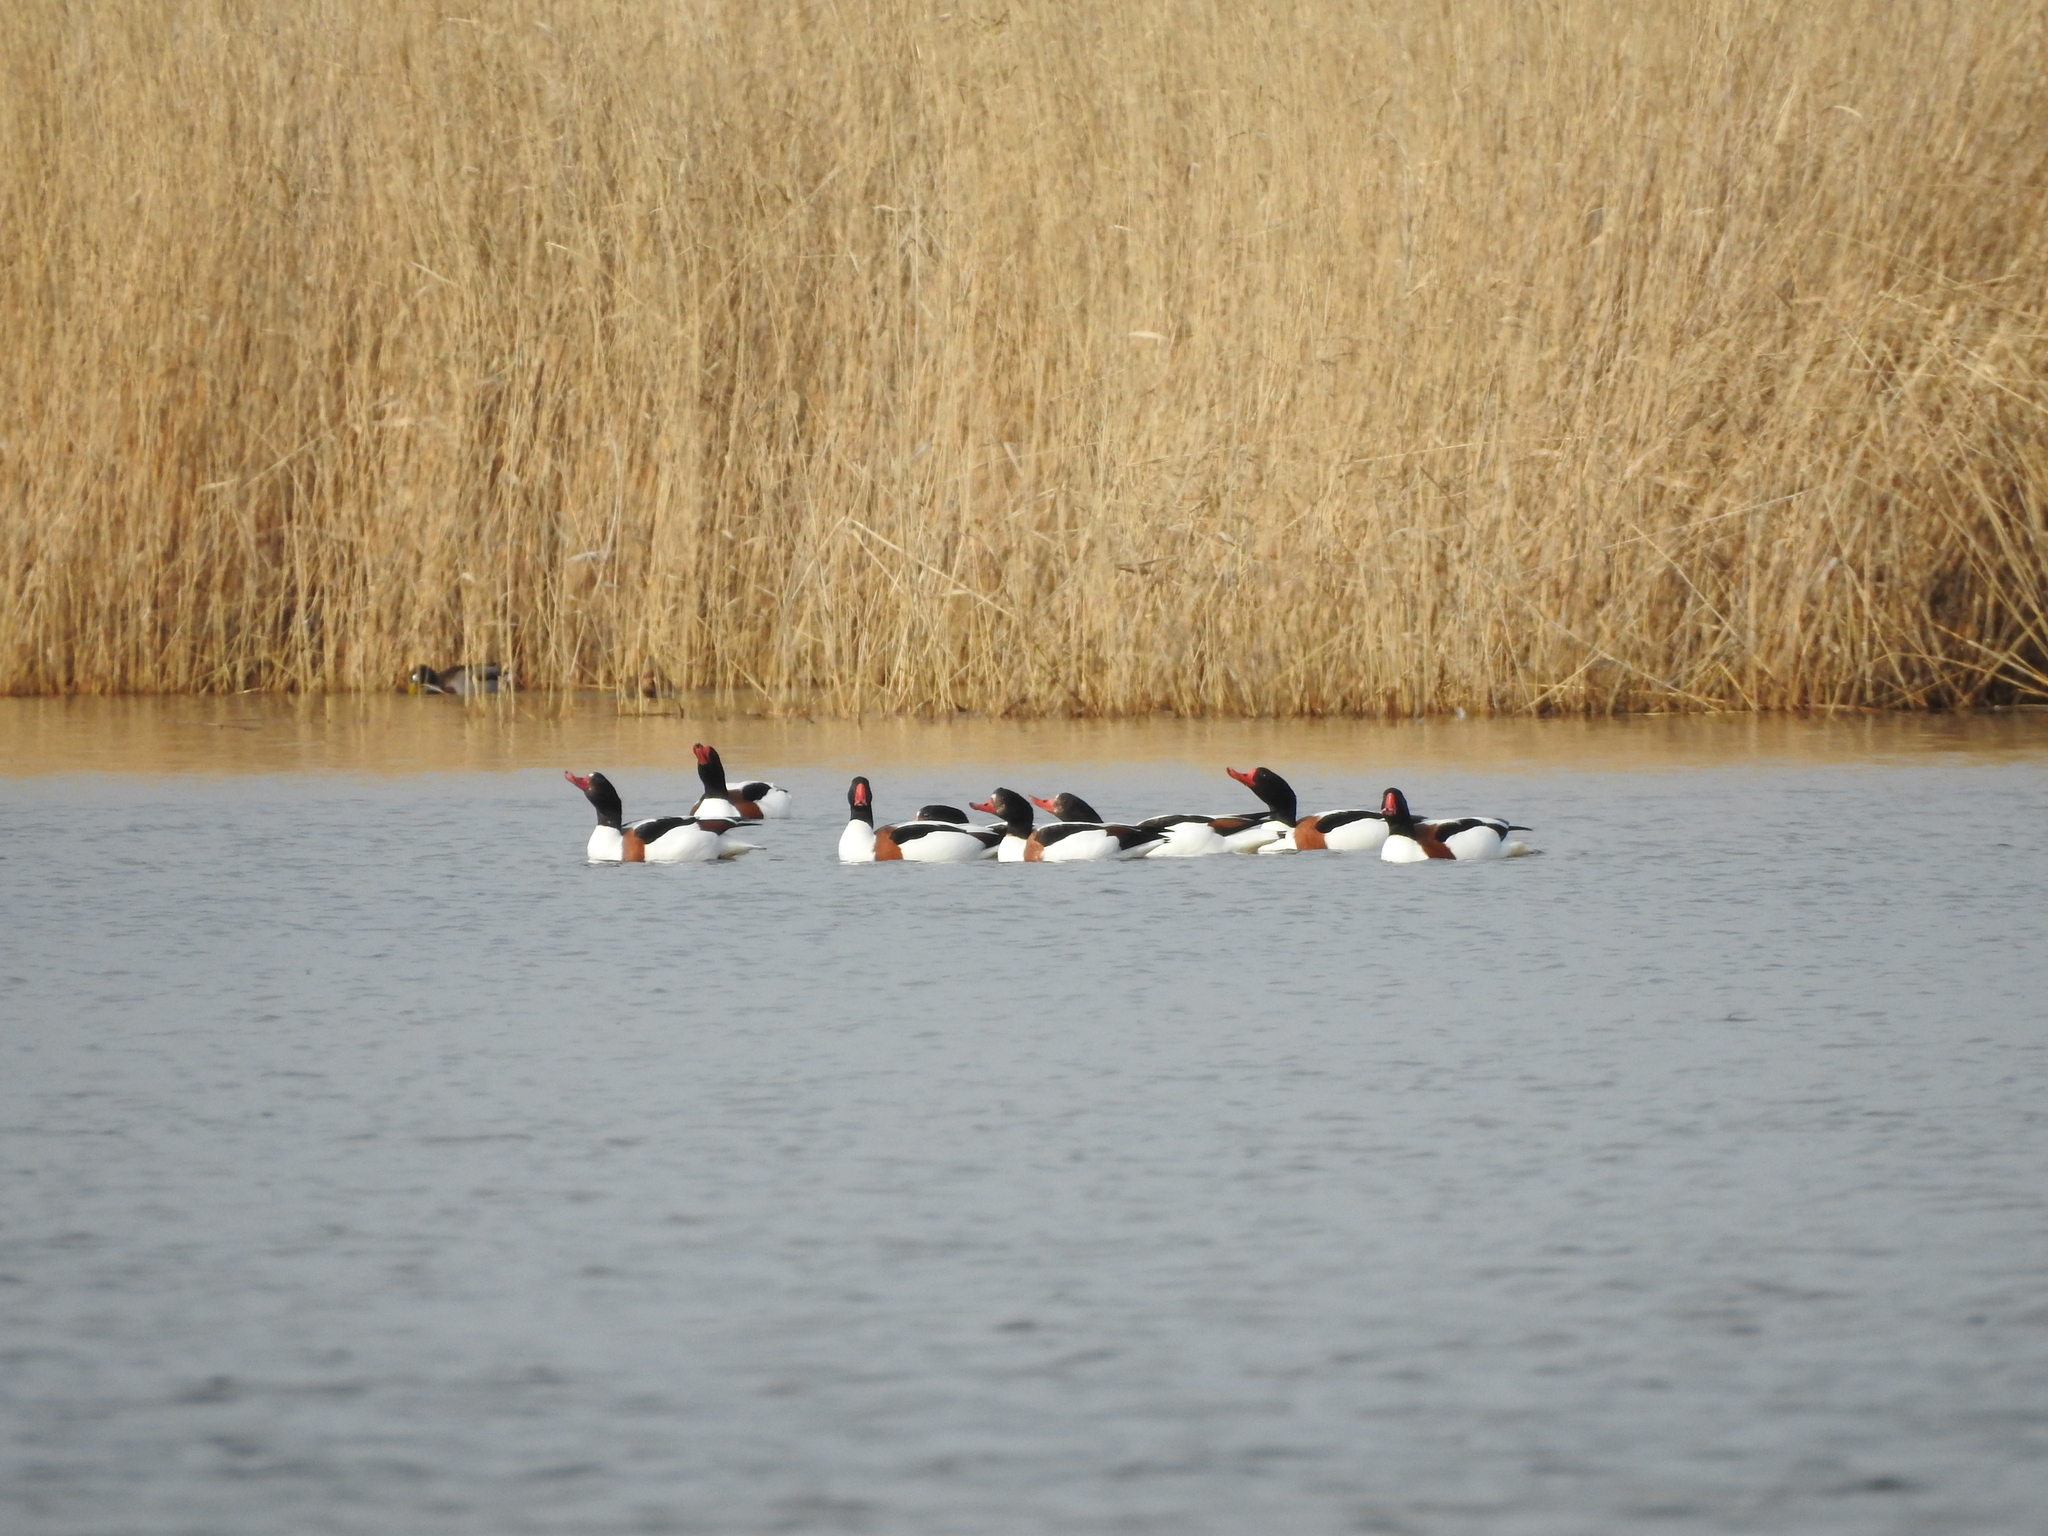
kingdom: Animalia
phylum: Chordata
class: Aves
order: Anseriformes
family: Anatidae
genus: Tadorna
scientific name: Tadorna tadorna
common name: Common shelduck
